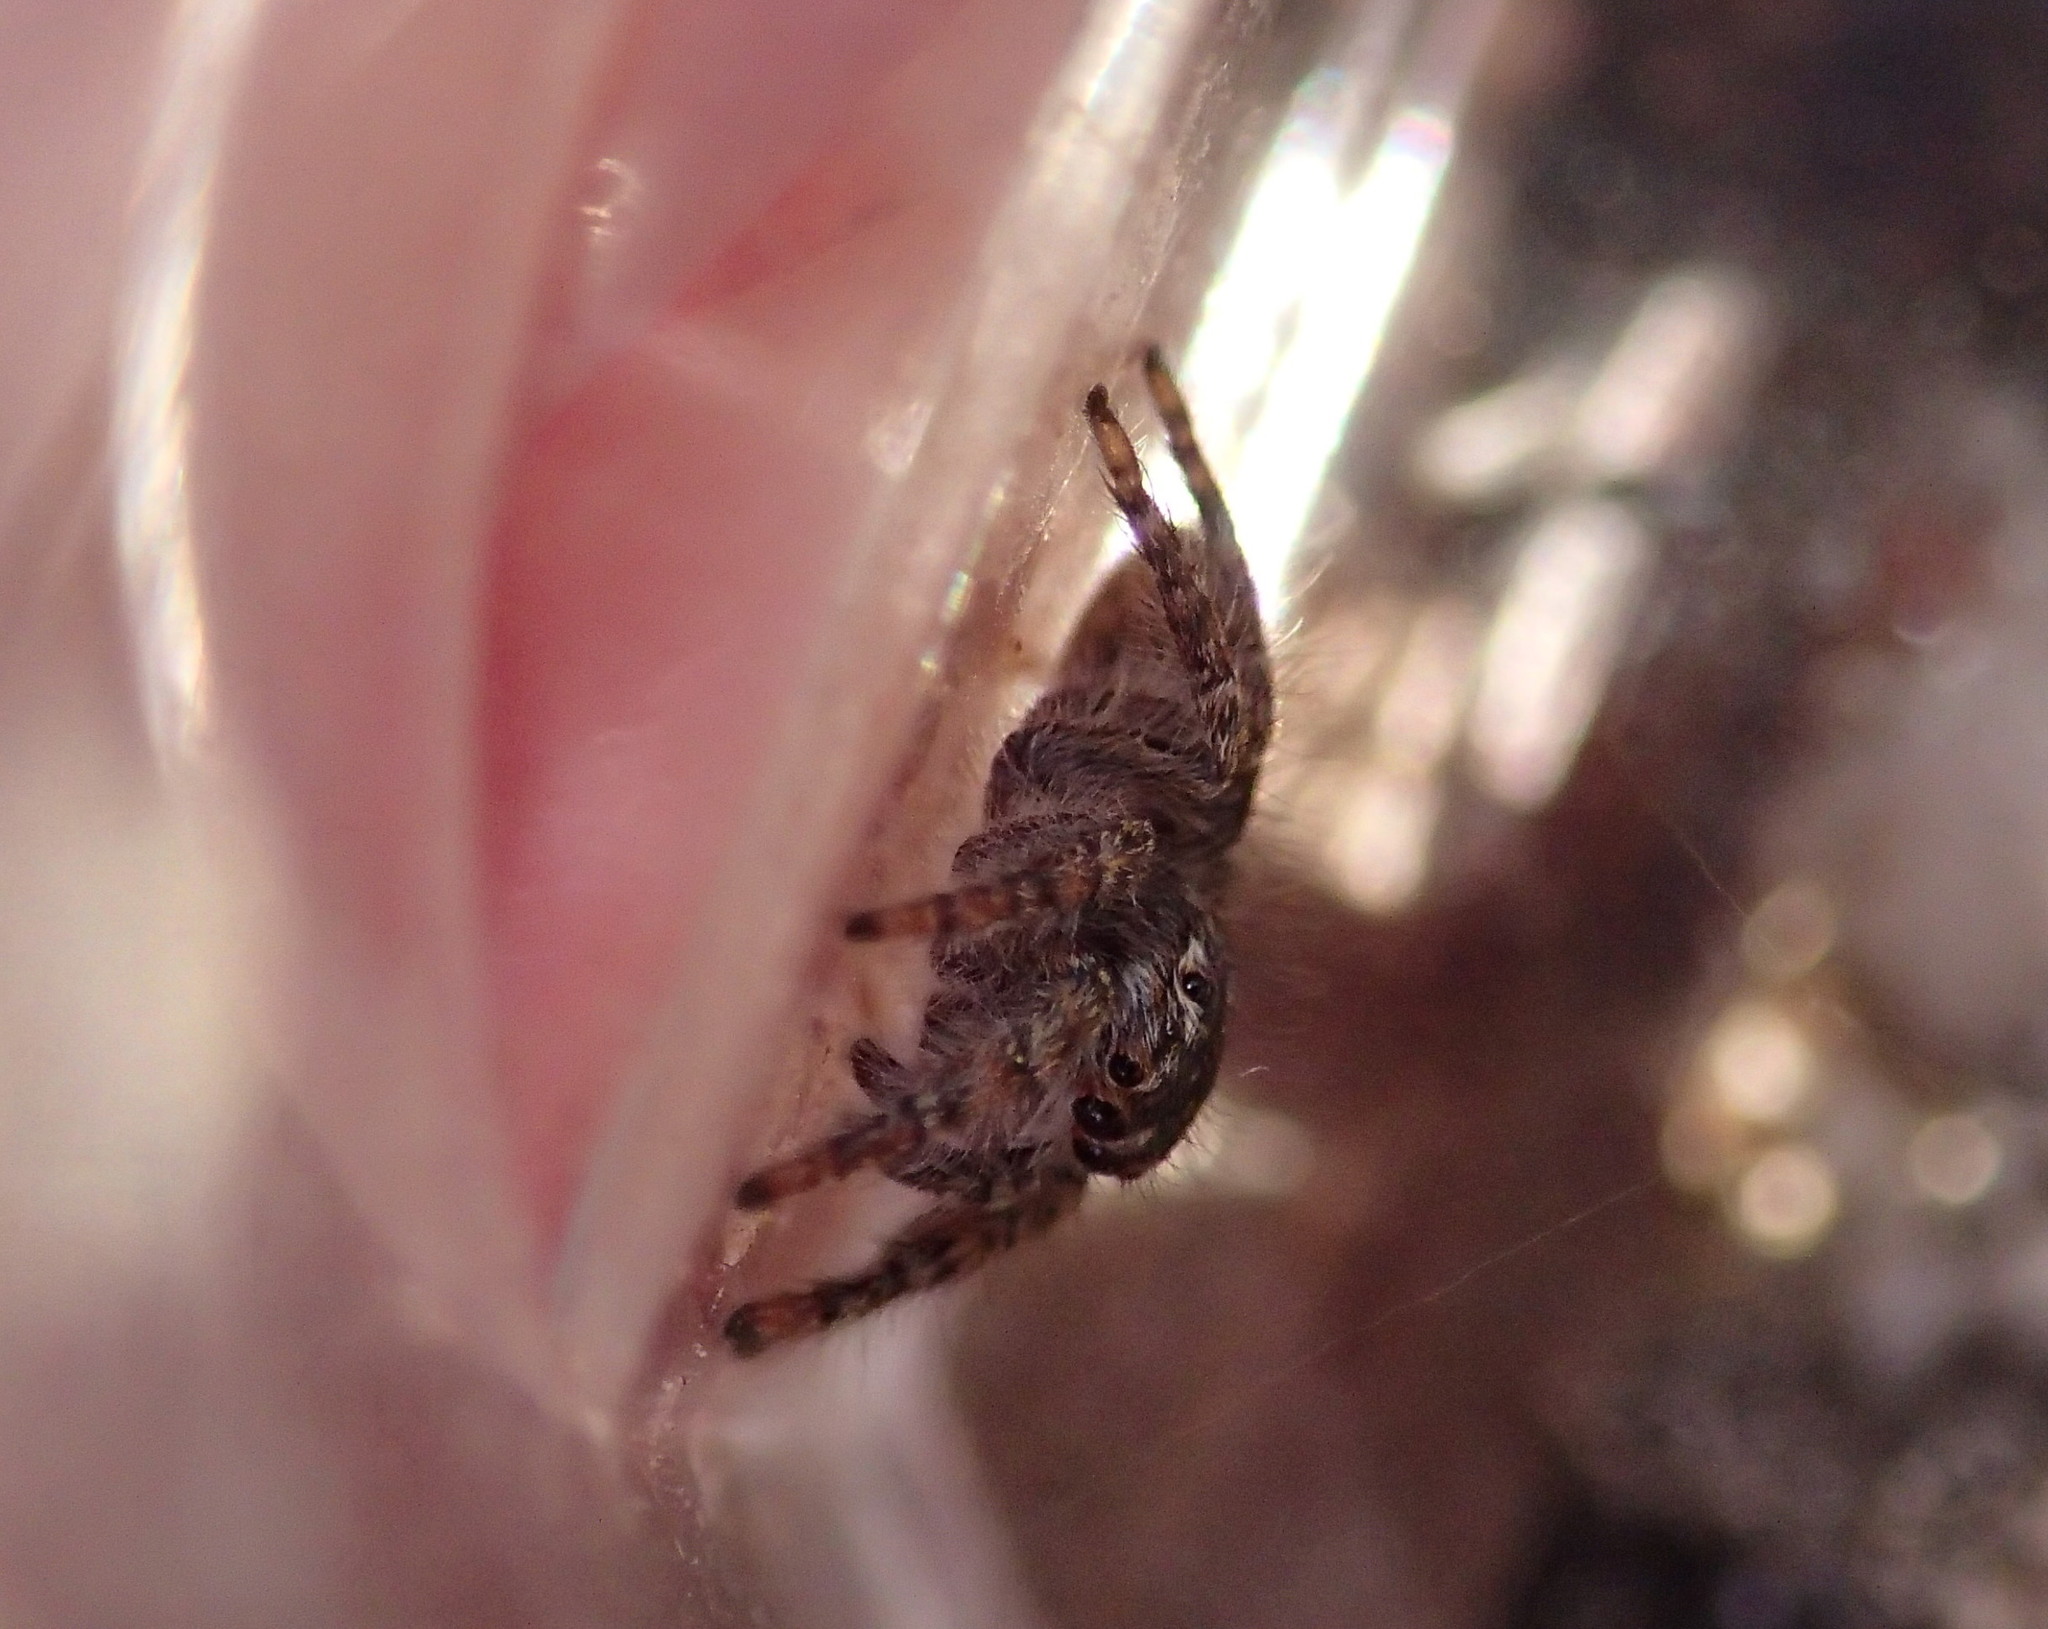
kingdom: Animalia
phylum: Arthropoda
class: Arachnida
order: Araneae
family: Salticidae
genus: Philaeus
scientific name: Philaeus chrysops
